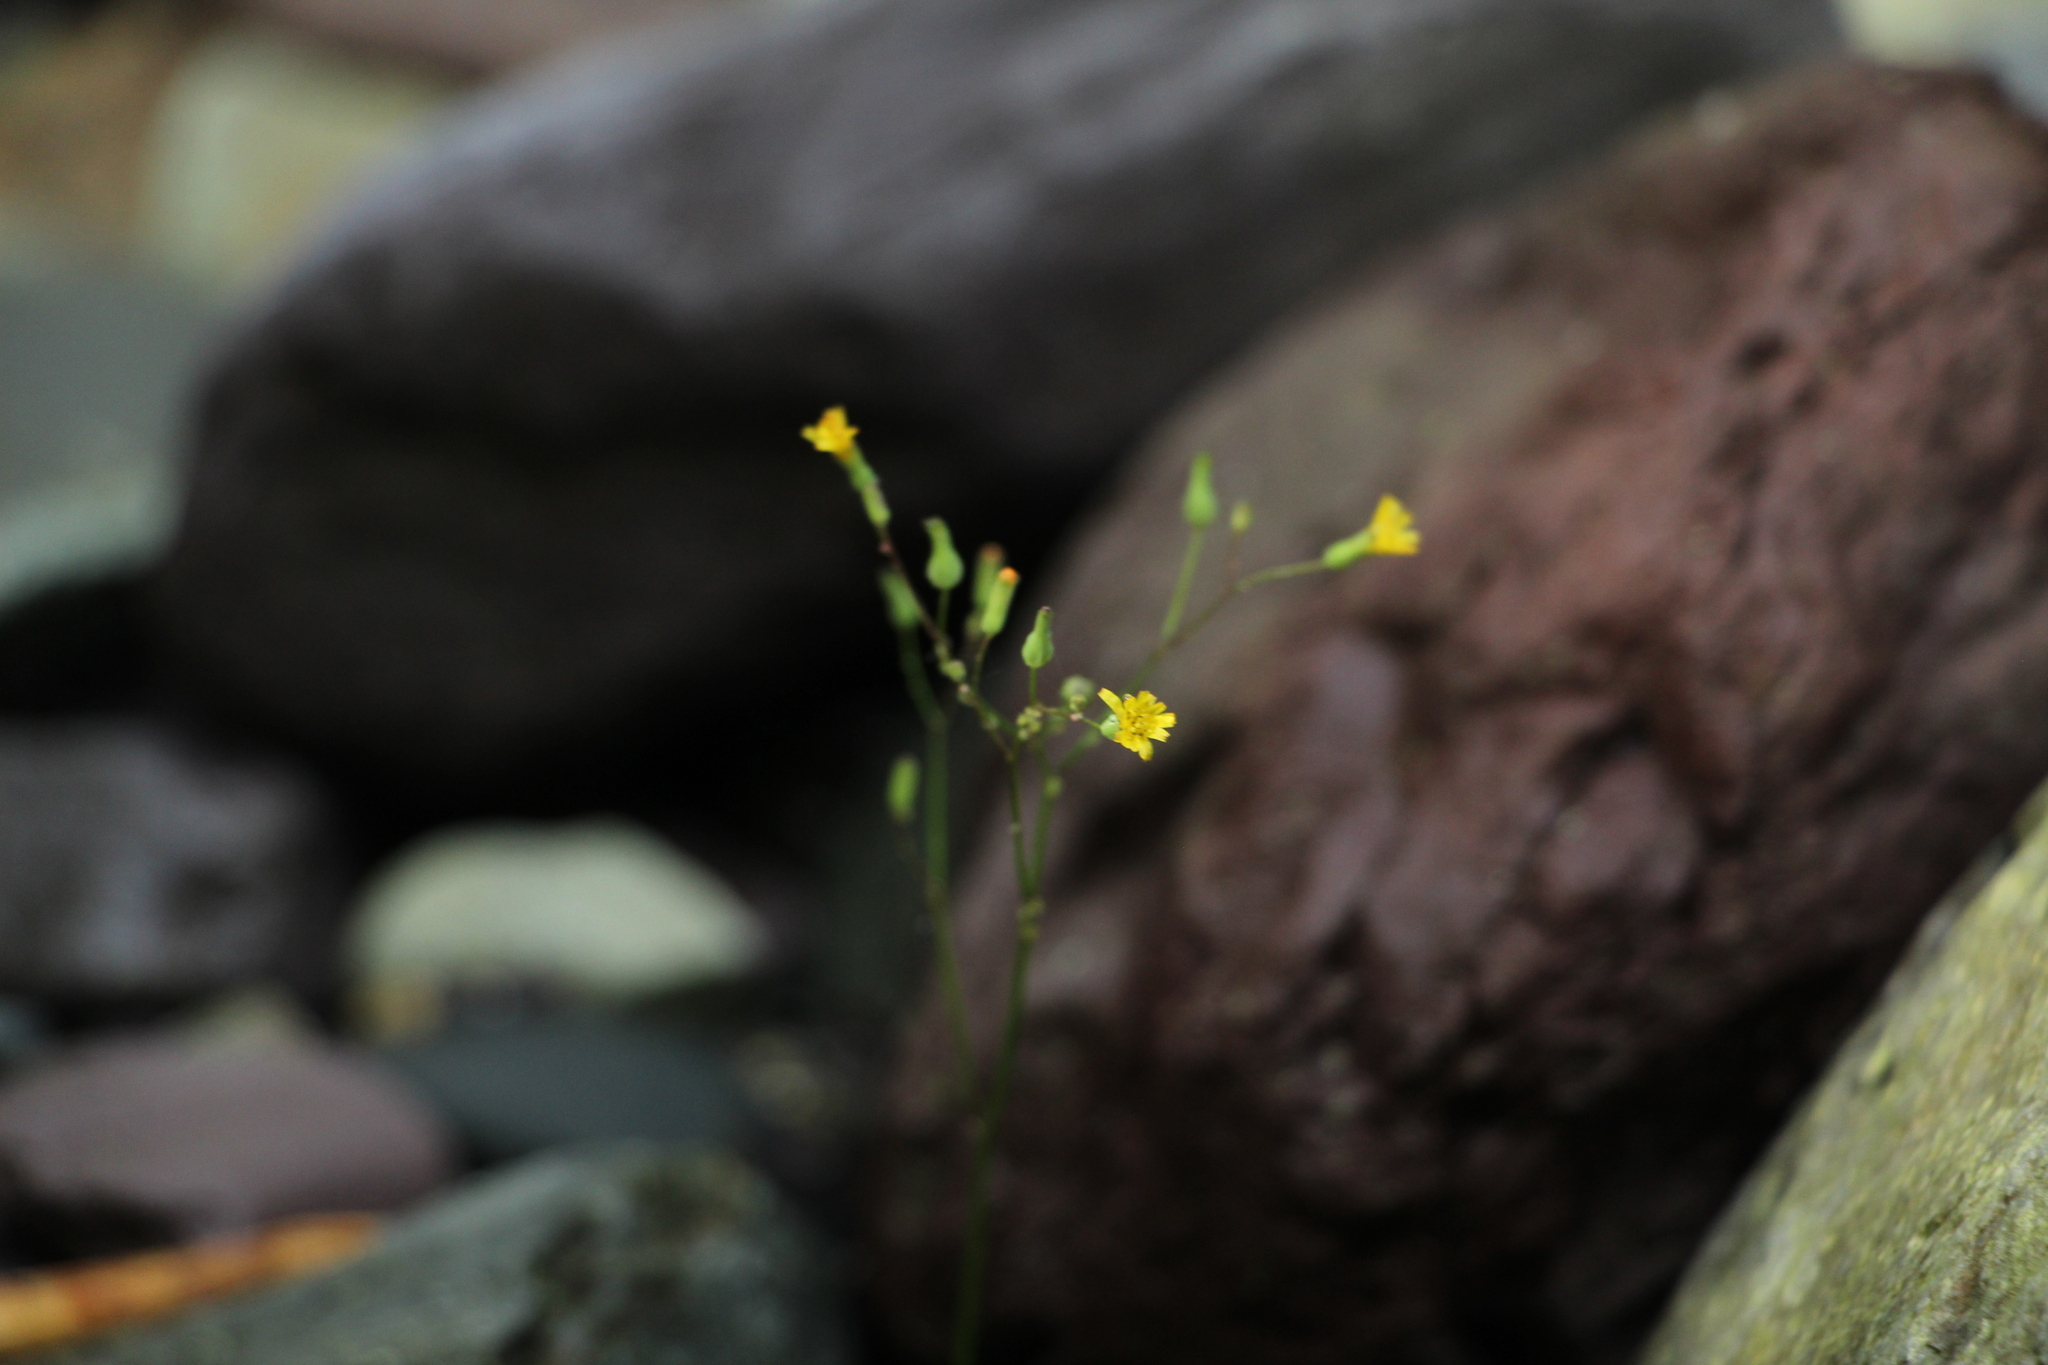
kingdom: Plantae
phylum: Tracheophyta
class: Magnoliopsida
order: Asterales
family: Asteraceae
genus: Youngia
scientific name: Youngia japonica
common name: Oriental false hawksbeard
